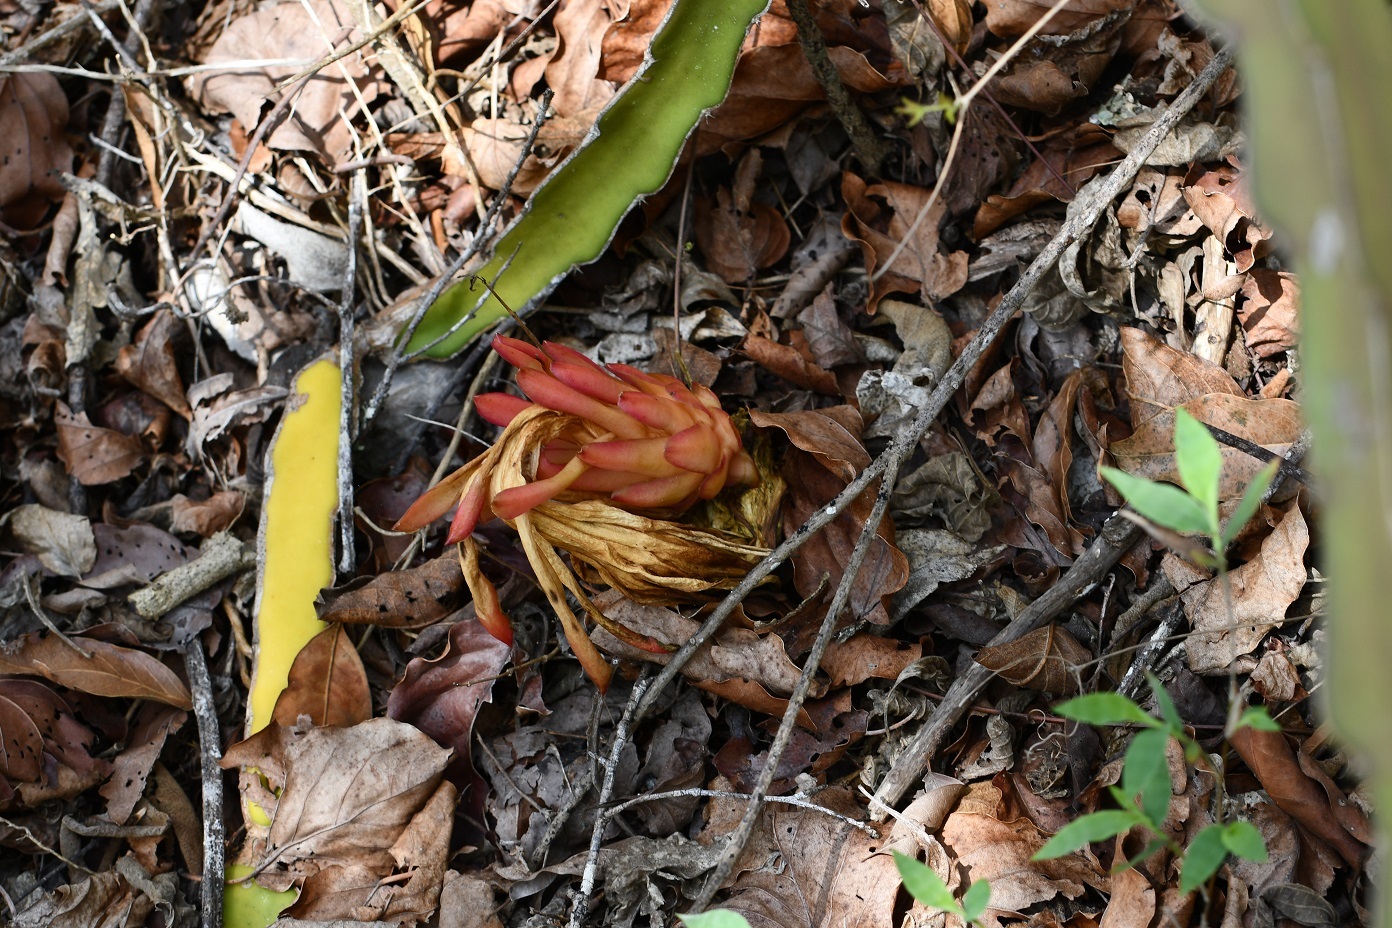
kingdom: Plantae
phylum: Tracheophyta
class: Magnoliopsida
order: Caryophyllales
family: Cactaceae
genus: Selenicereus
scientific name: Selenicereus ocamponis
